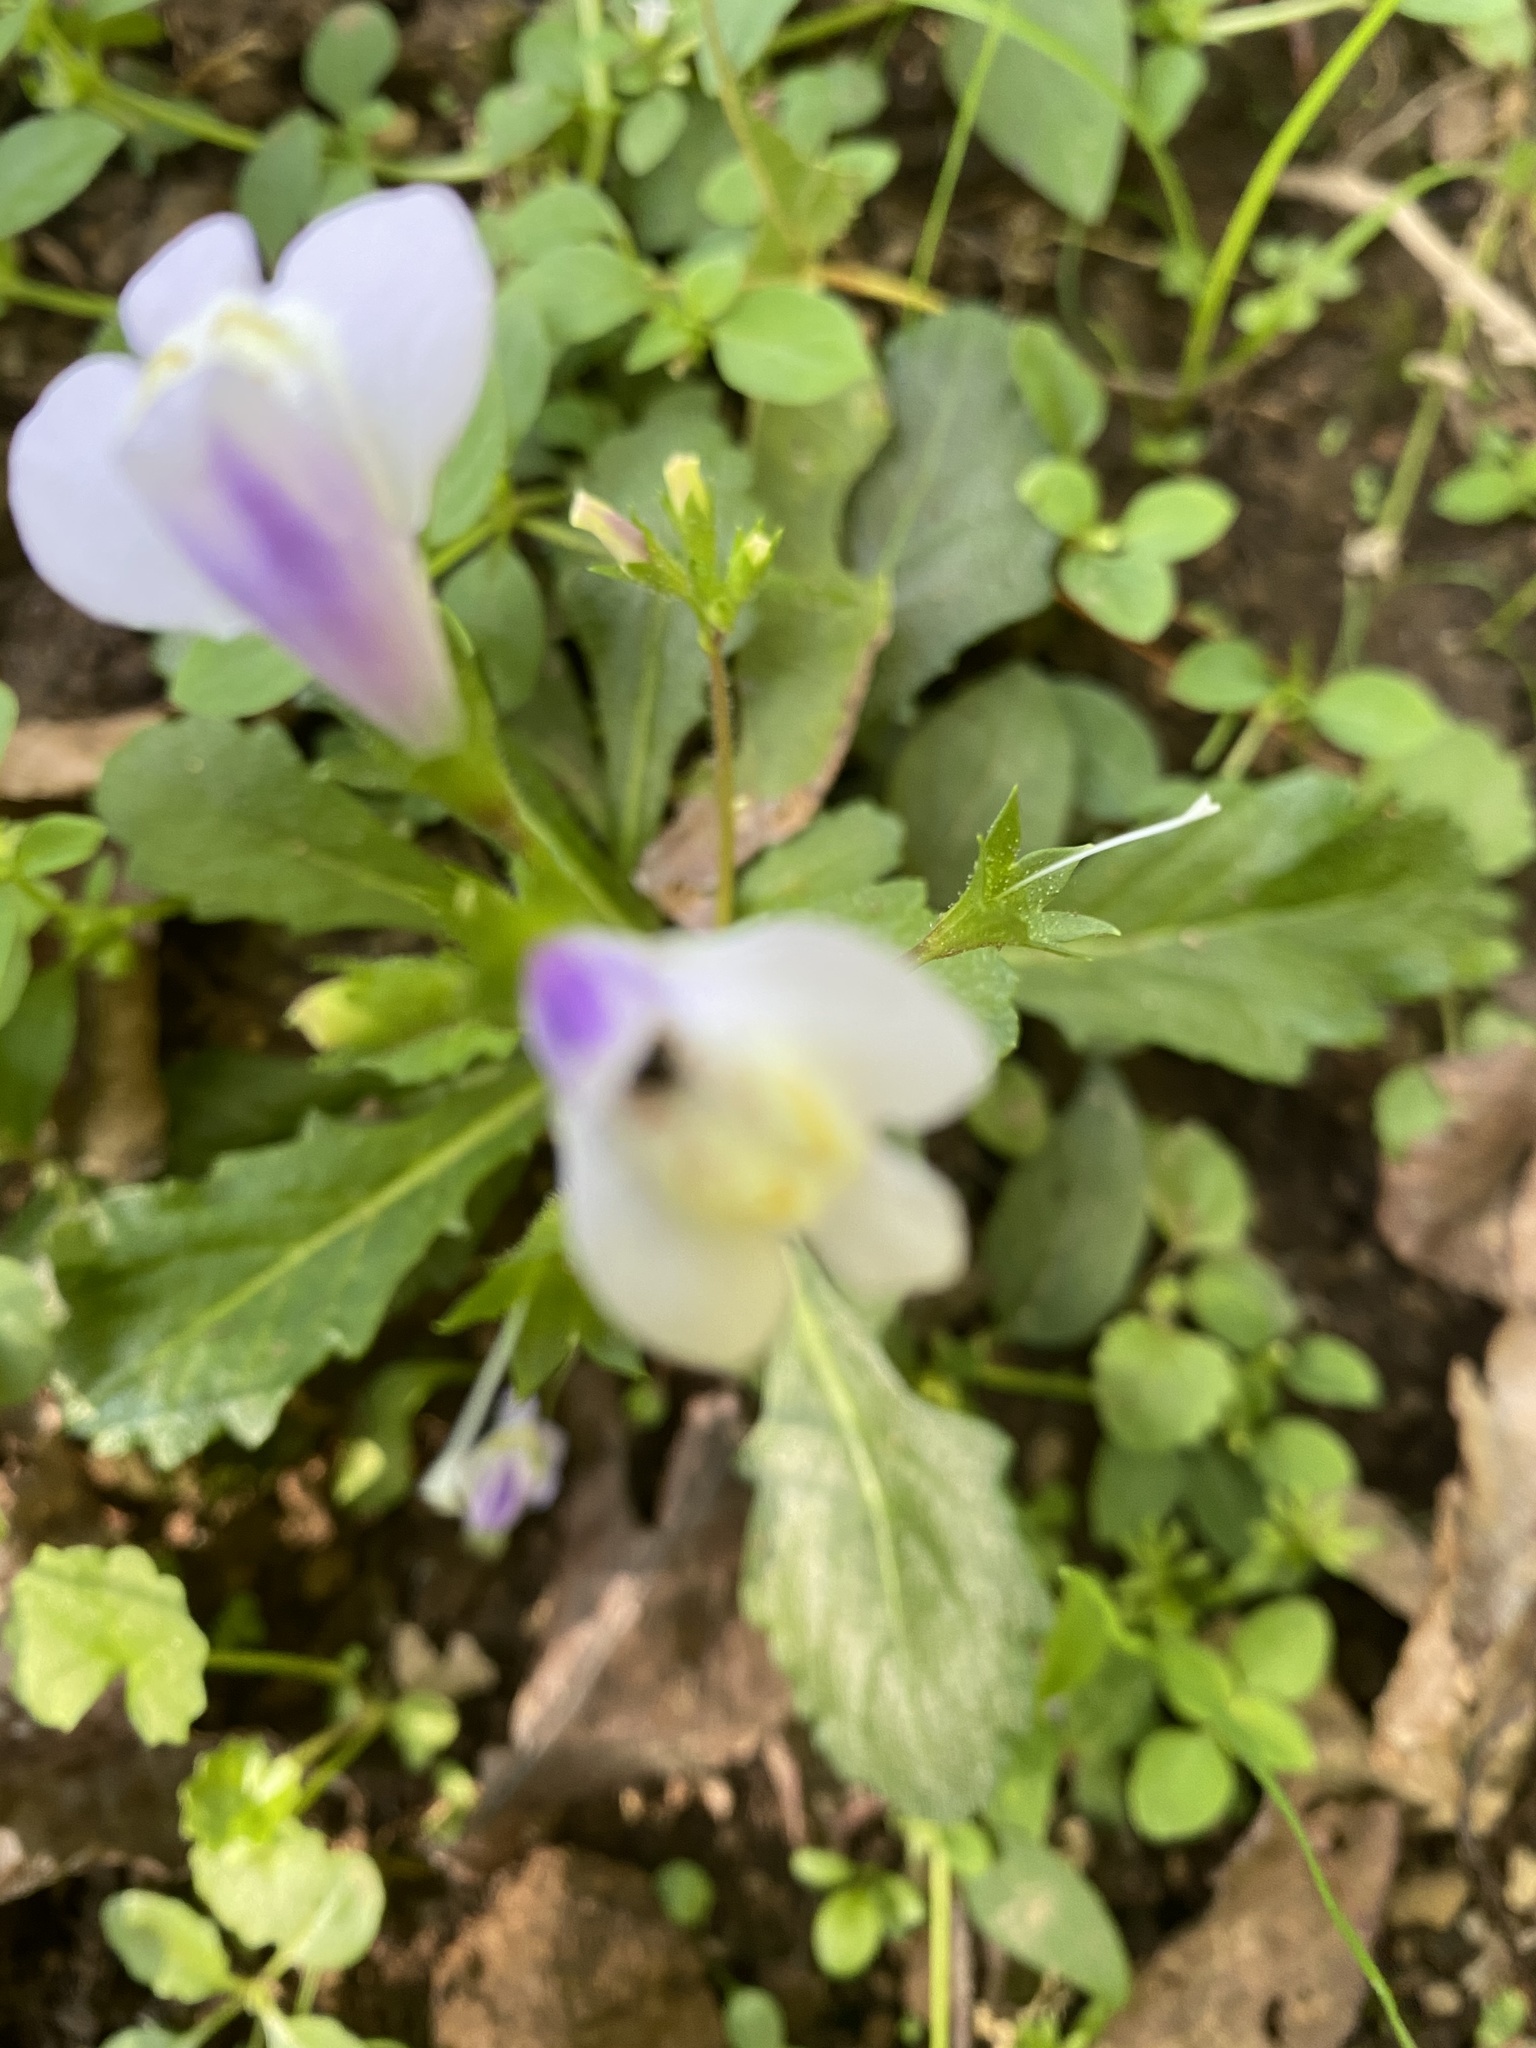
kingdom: Plantae
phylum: Tracheophyta
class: Magnoliopsida
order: Lamiales
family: Mazaceae
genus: Mazus
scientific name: Mazus fauriei
